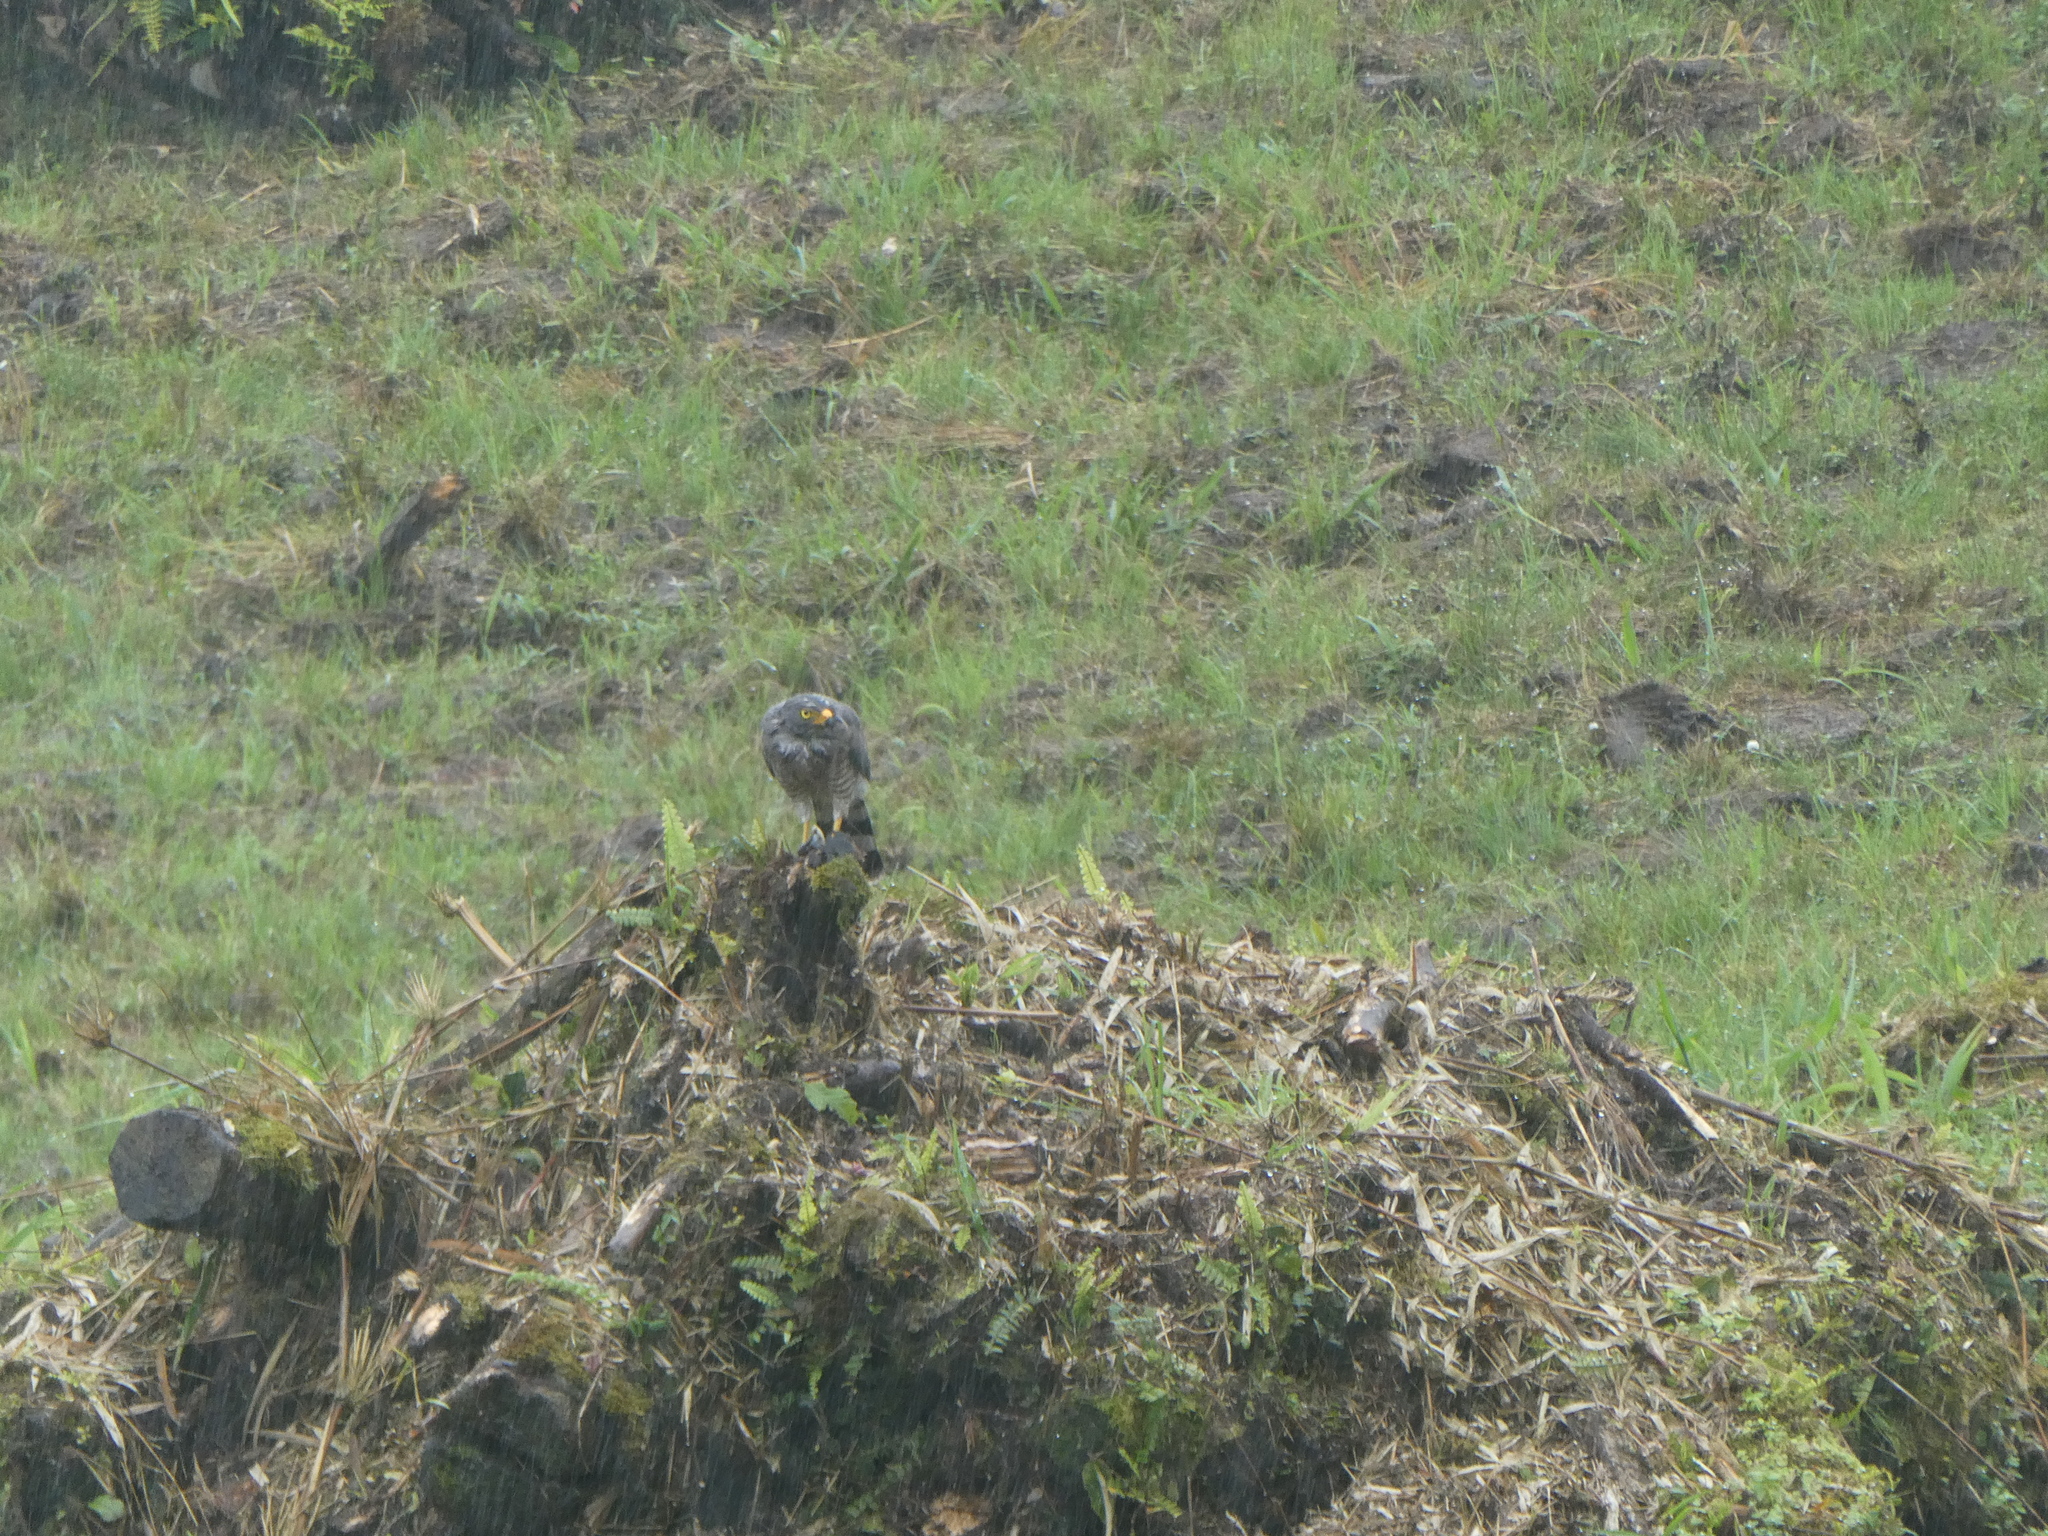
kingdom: Animalia
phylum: Chordata
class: Aves
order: Accipitriformes
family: Accipitridae
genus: Rupornis
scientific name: Rupornis magnirostris
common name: Roadside hawk
